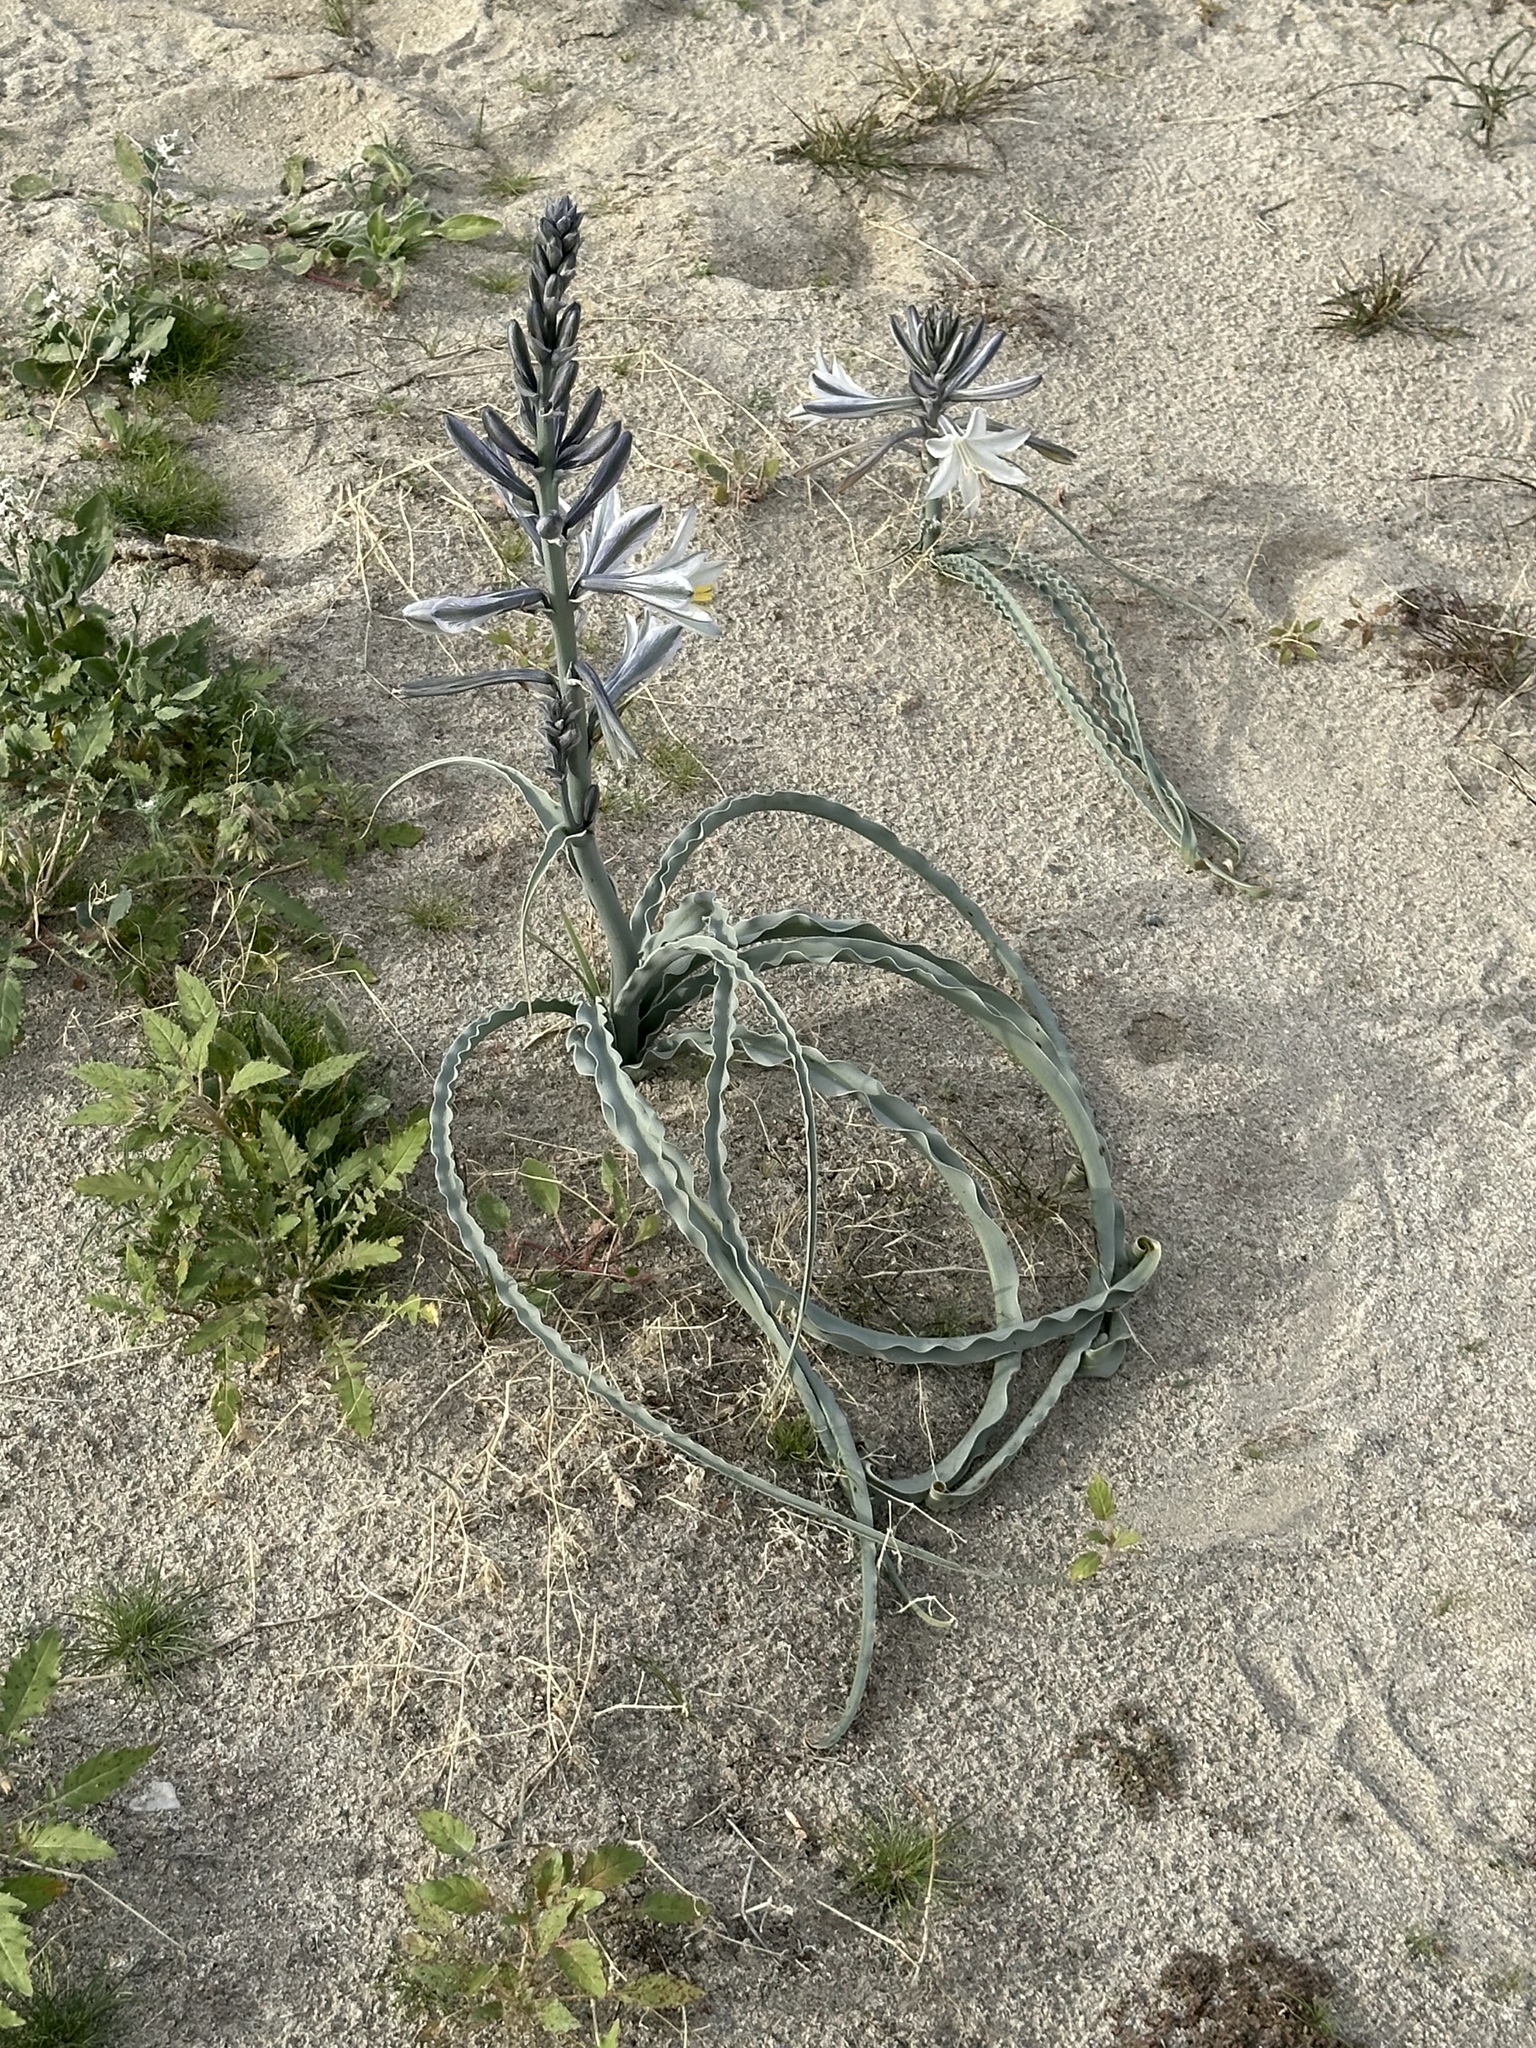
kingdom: Plantae
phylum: Tracheophyta
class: Liliopsida
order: Asparagales
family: Asparagaceae
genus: Hesperocallis
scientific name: Hesperocallis undulata
